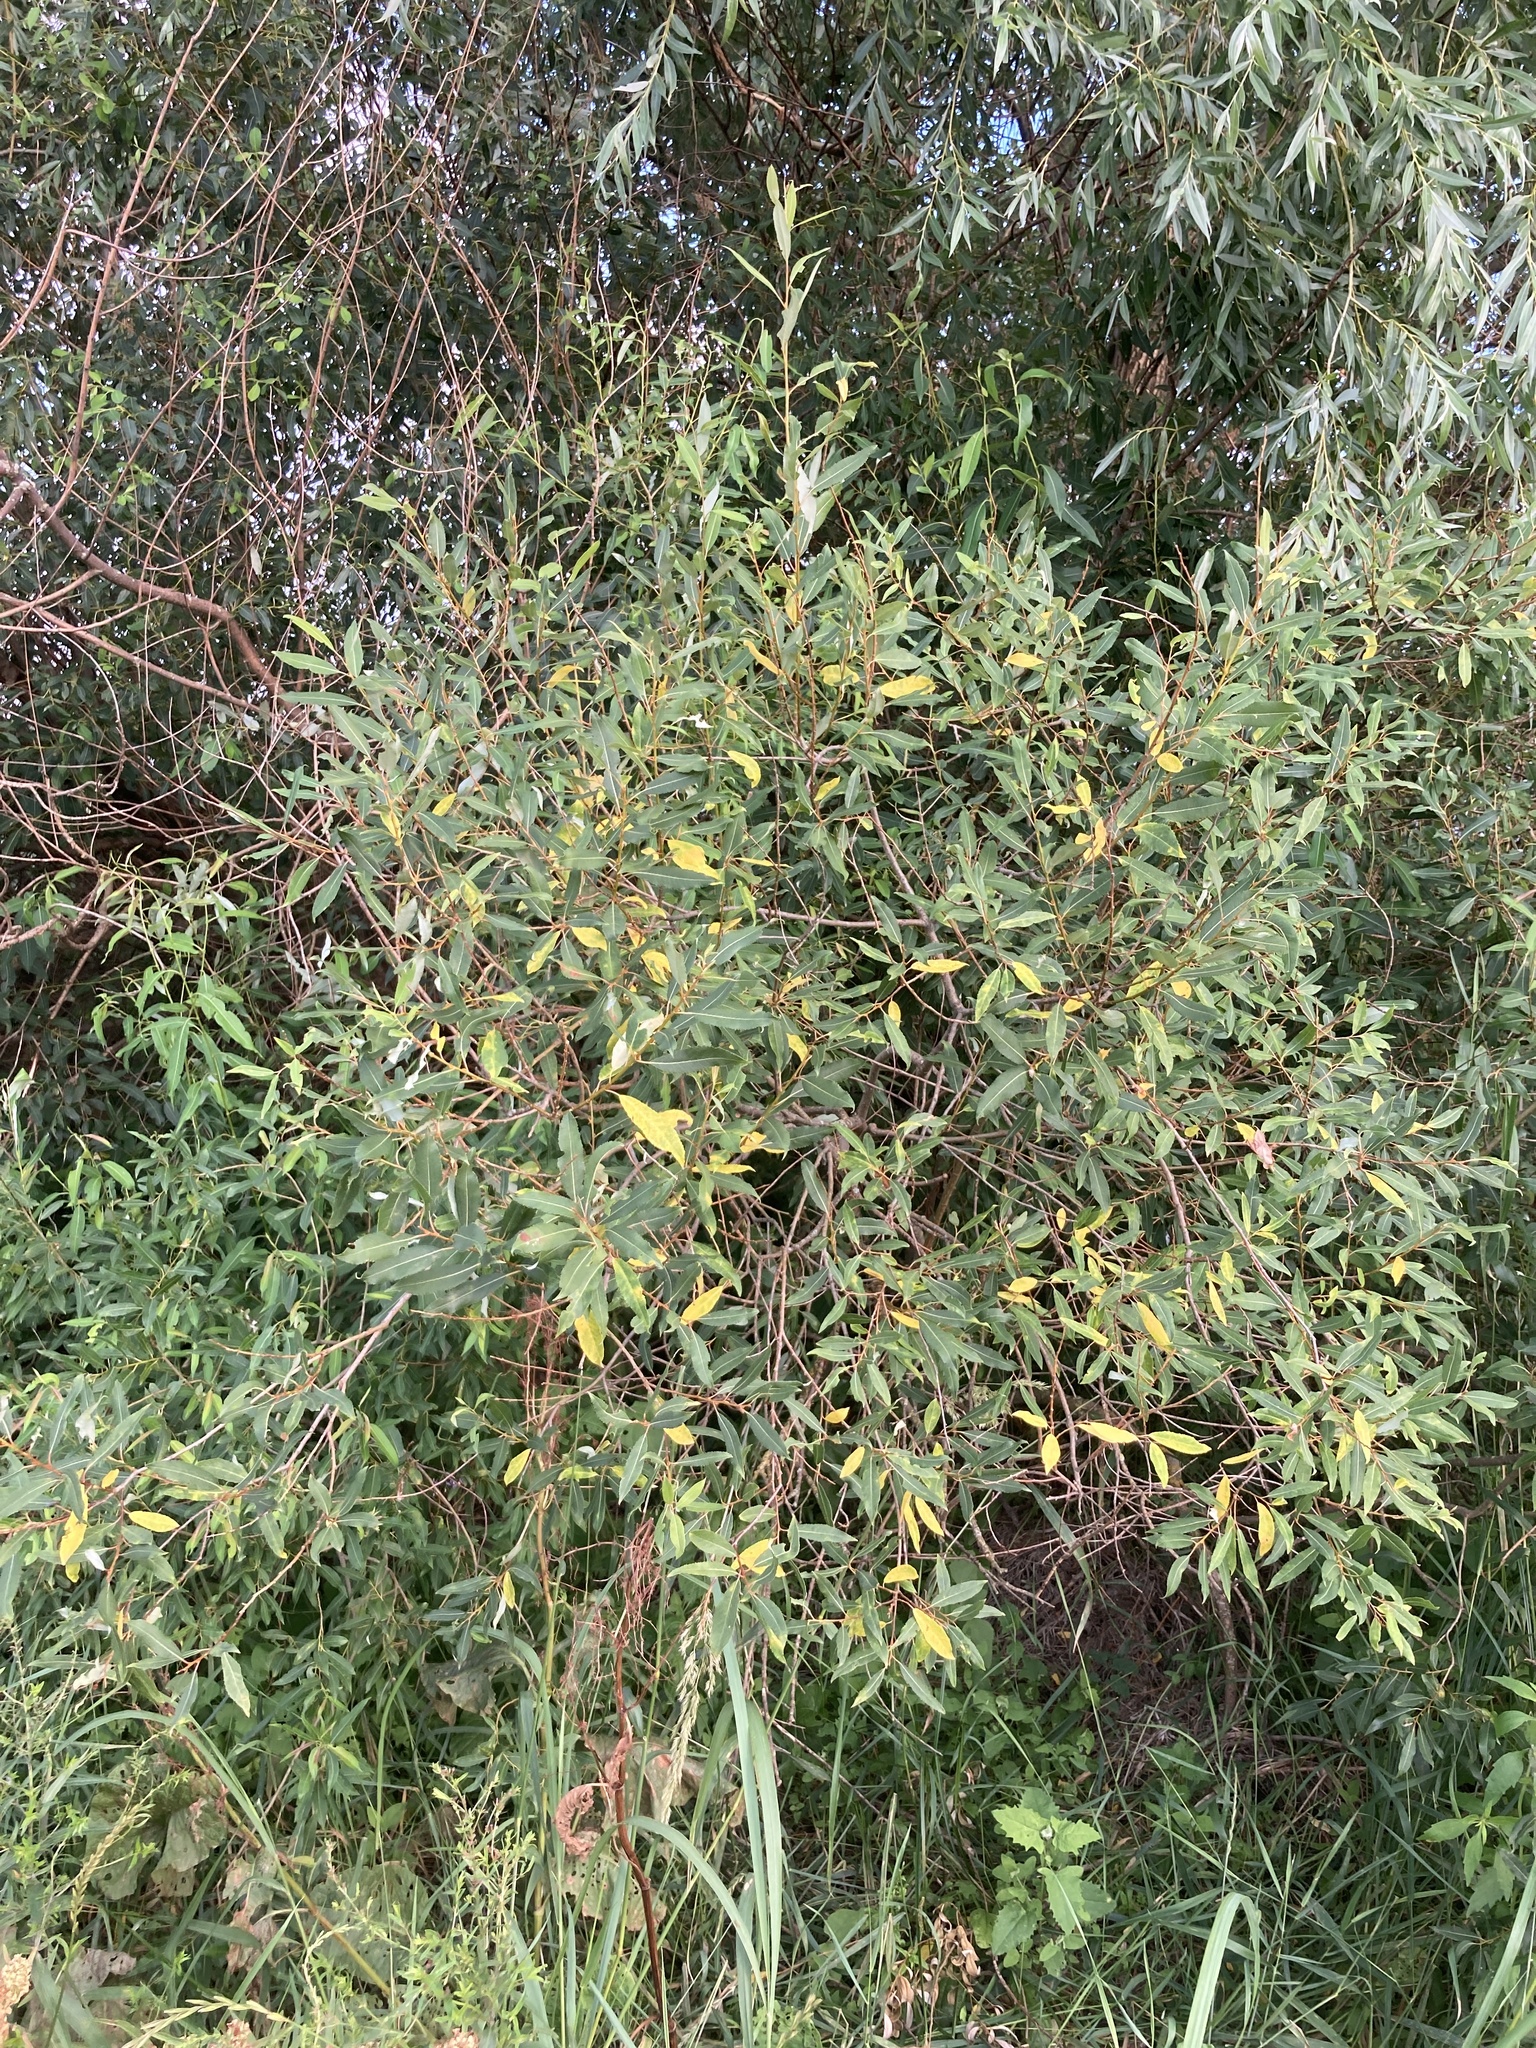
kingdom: Plantae
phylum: Tracheophyta
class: Magnoliopsida
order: Malpighiales
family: Salicaceae
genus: Salix
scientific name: Salix triandra
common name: Almond willow
